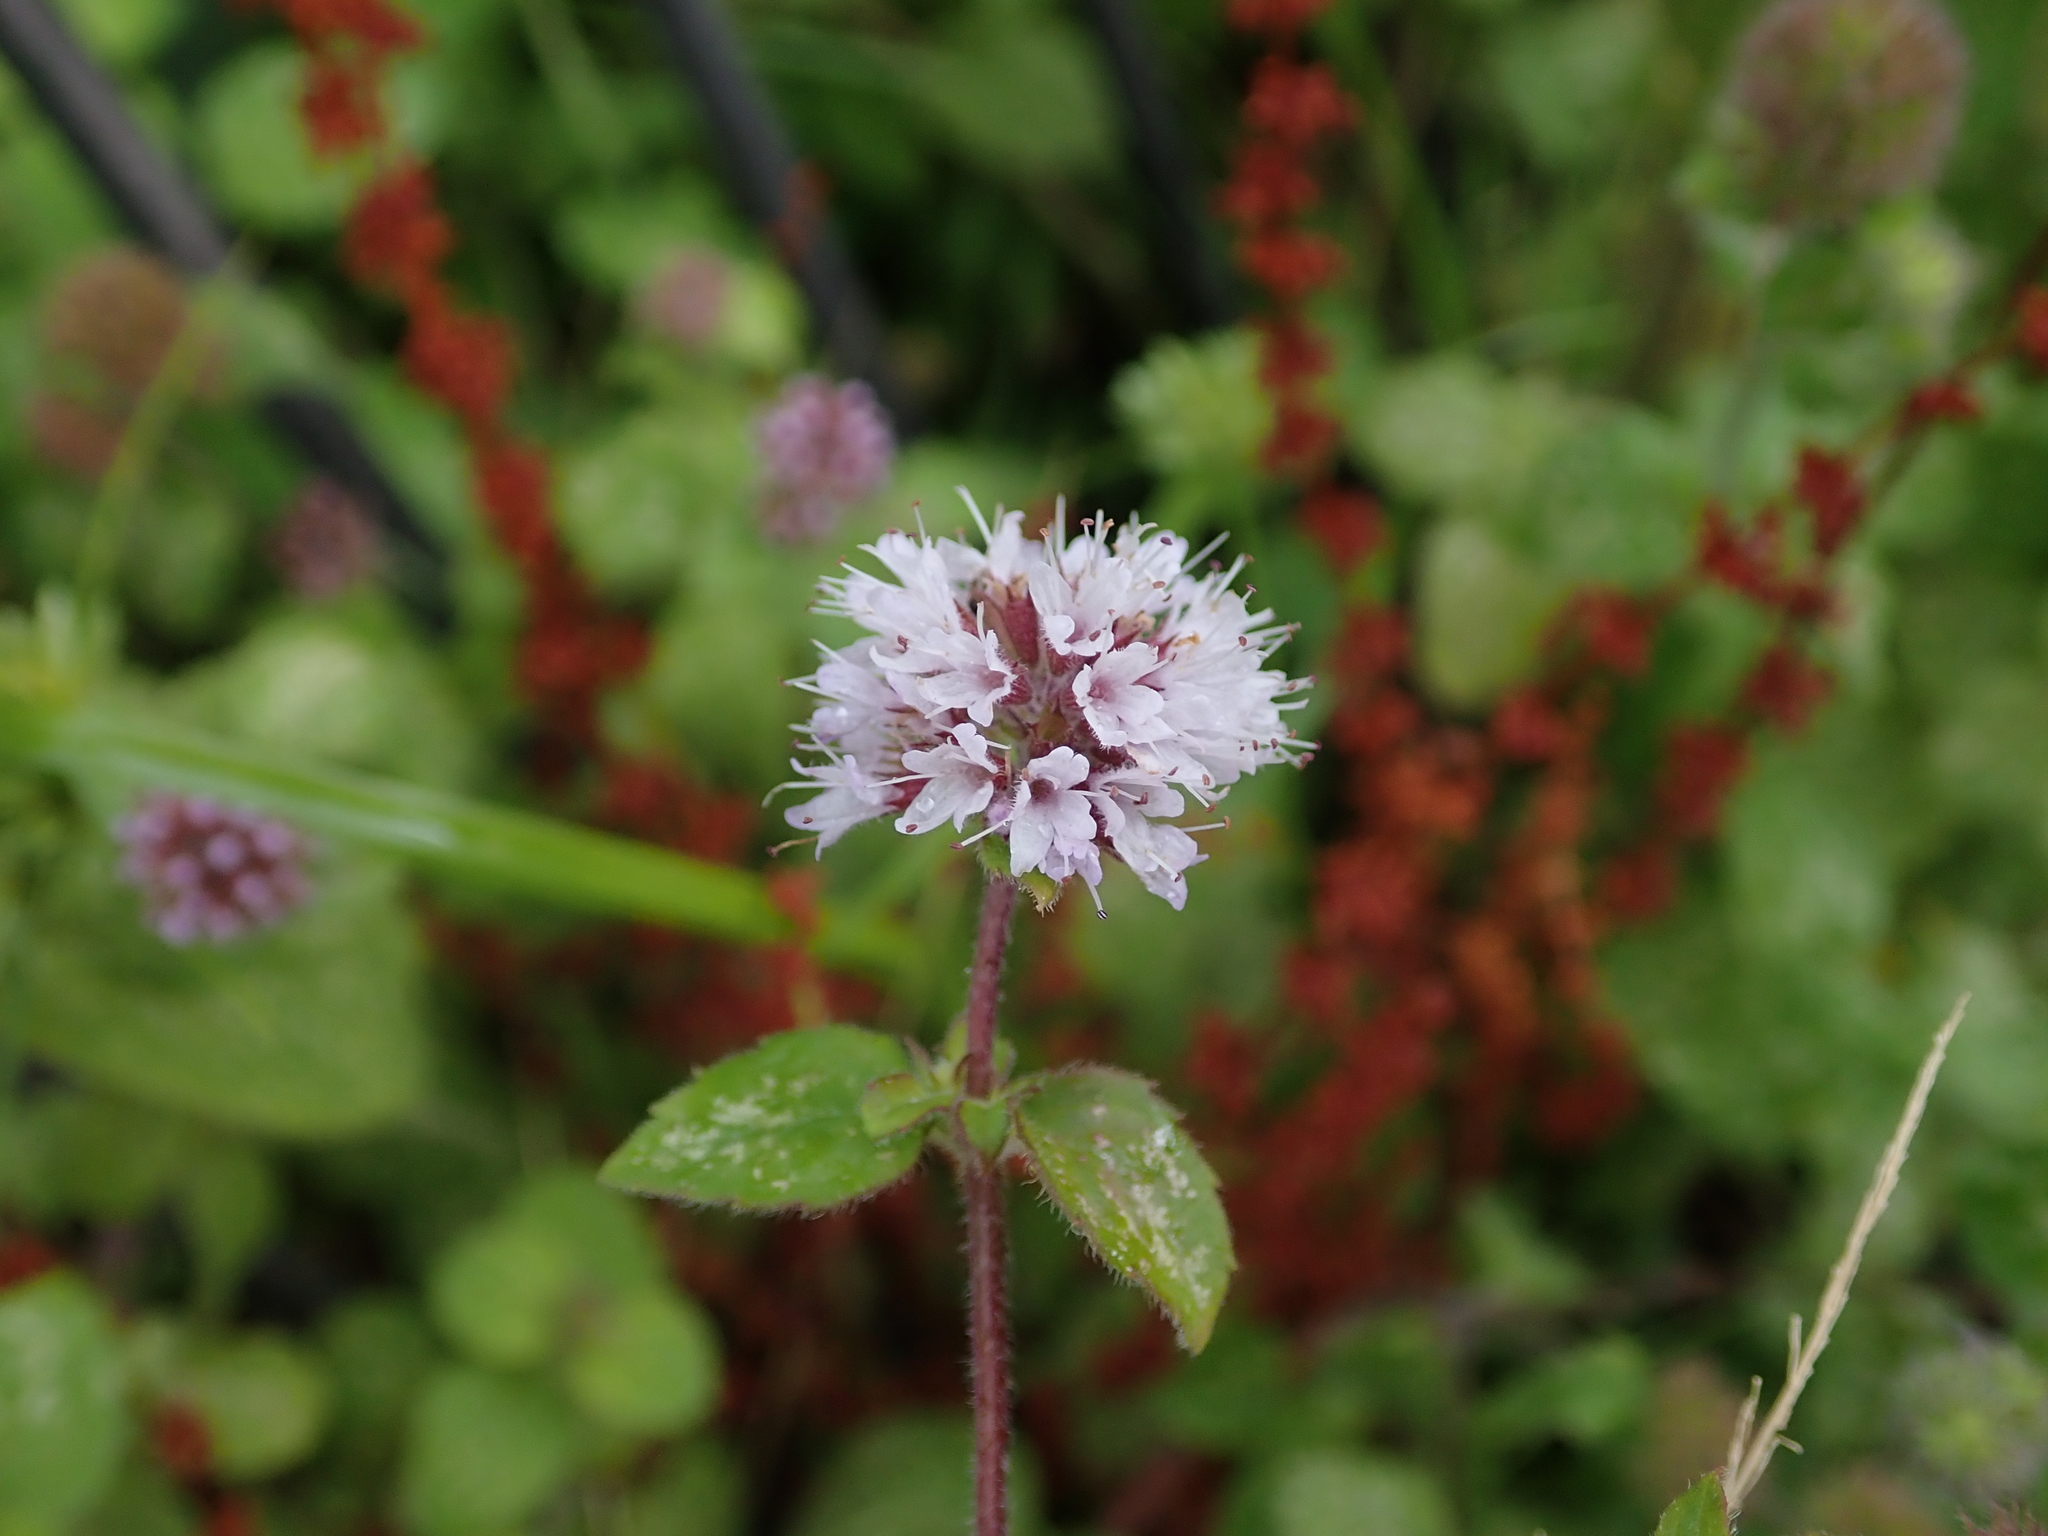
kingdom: Plantae
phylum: Tracheophyta
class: Magnoliopsida
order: Lamiales
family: Lamiaceae
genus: Mentha
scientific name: Mentha aquatica
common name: Water mint
